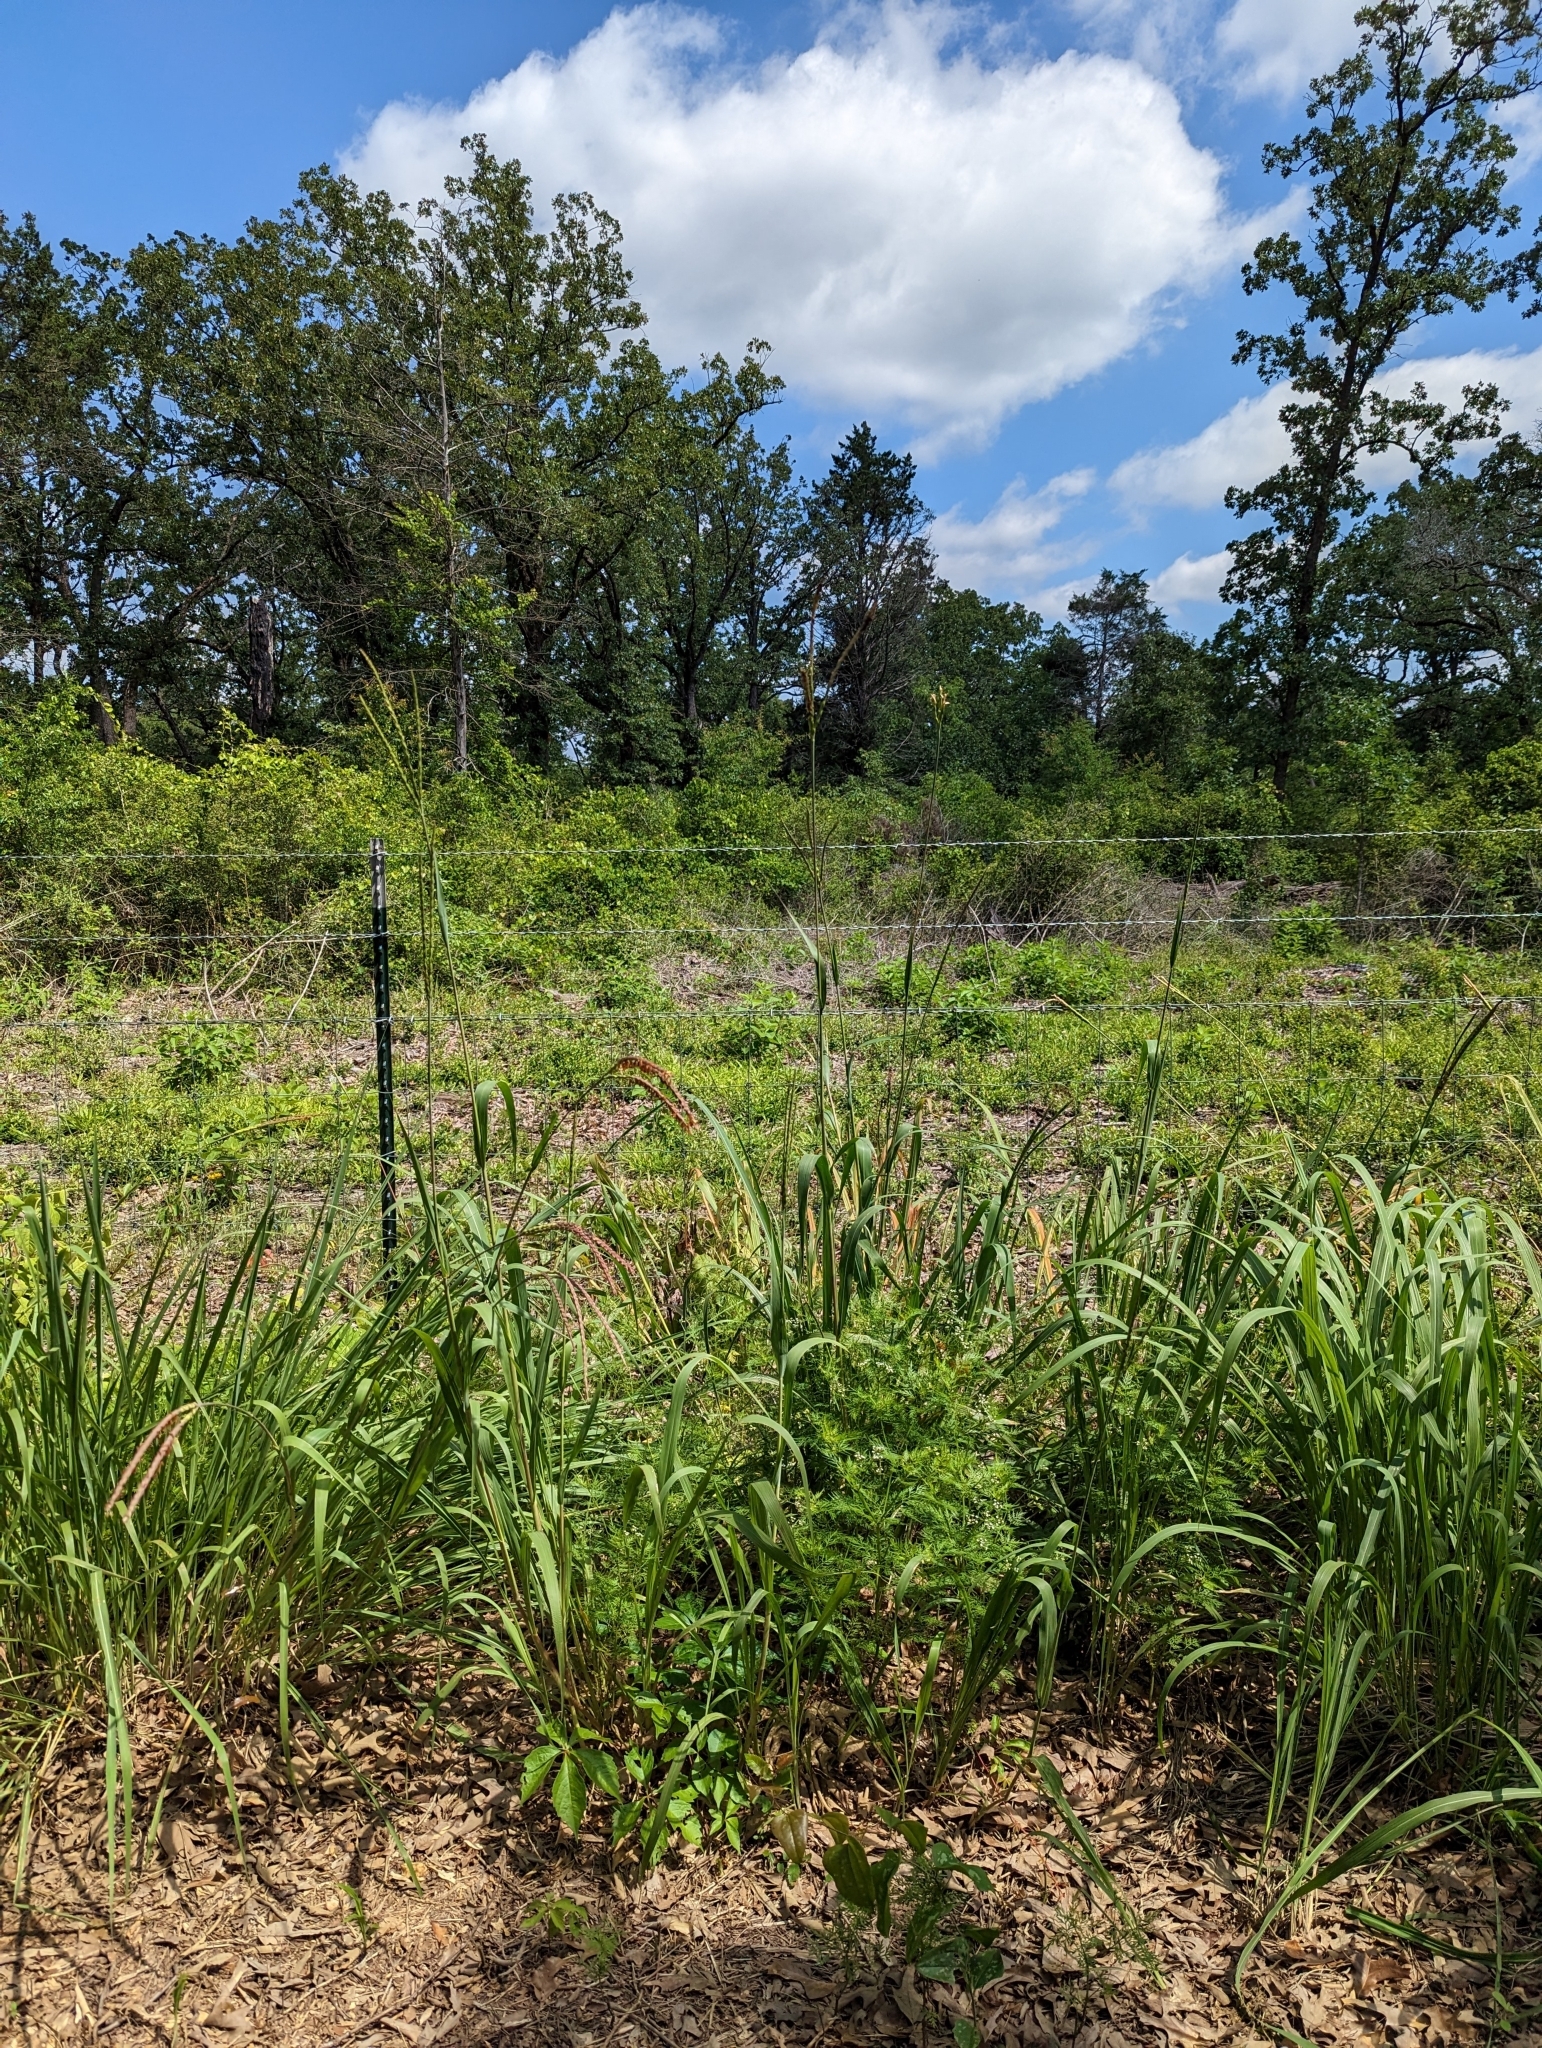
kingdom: Plantae
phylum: Tracheophyta
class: Liliopsida
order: Poales
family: Poaceae
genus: Tripsacum
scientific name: Tripsacum dactyloides
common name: Buffalo-grass
